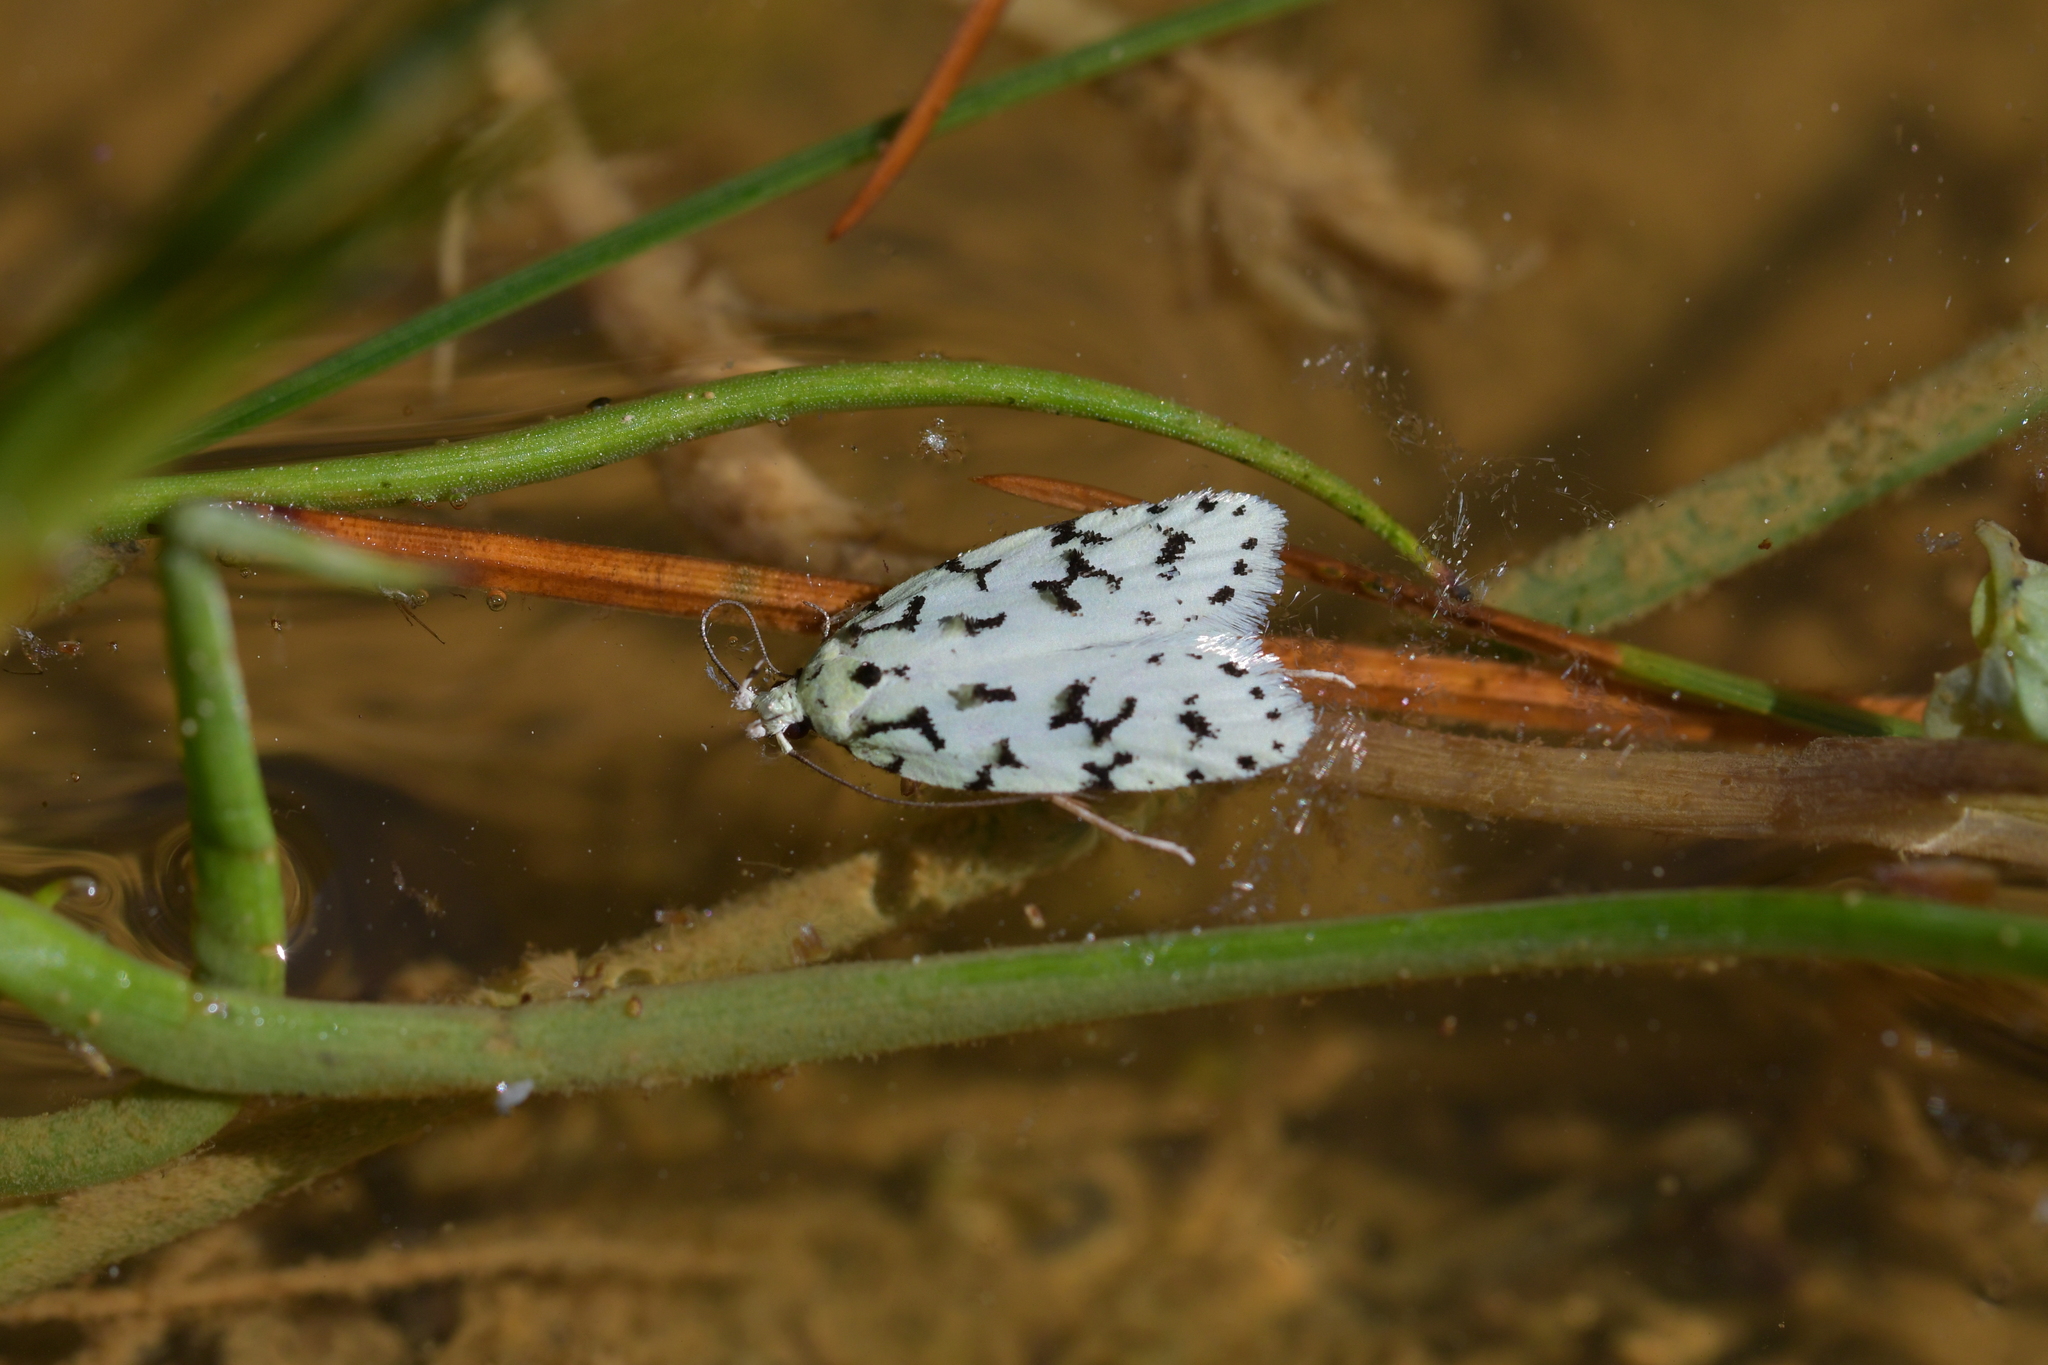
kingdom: Animalia
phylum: Arthropoda
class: Insecta
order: Lepidoptera
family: Oecophoridae
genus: Izatha
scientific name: Izatha huttoni
